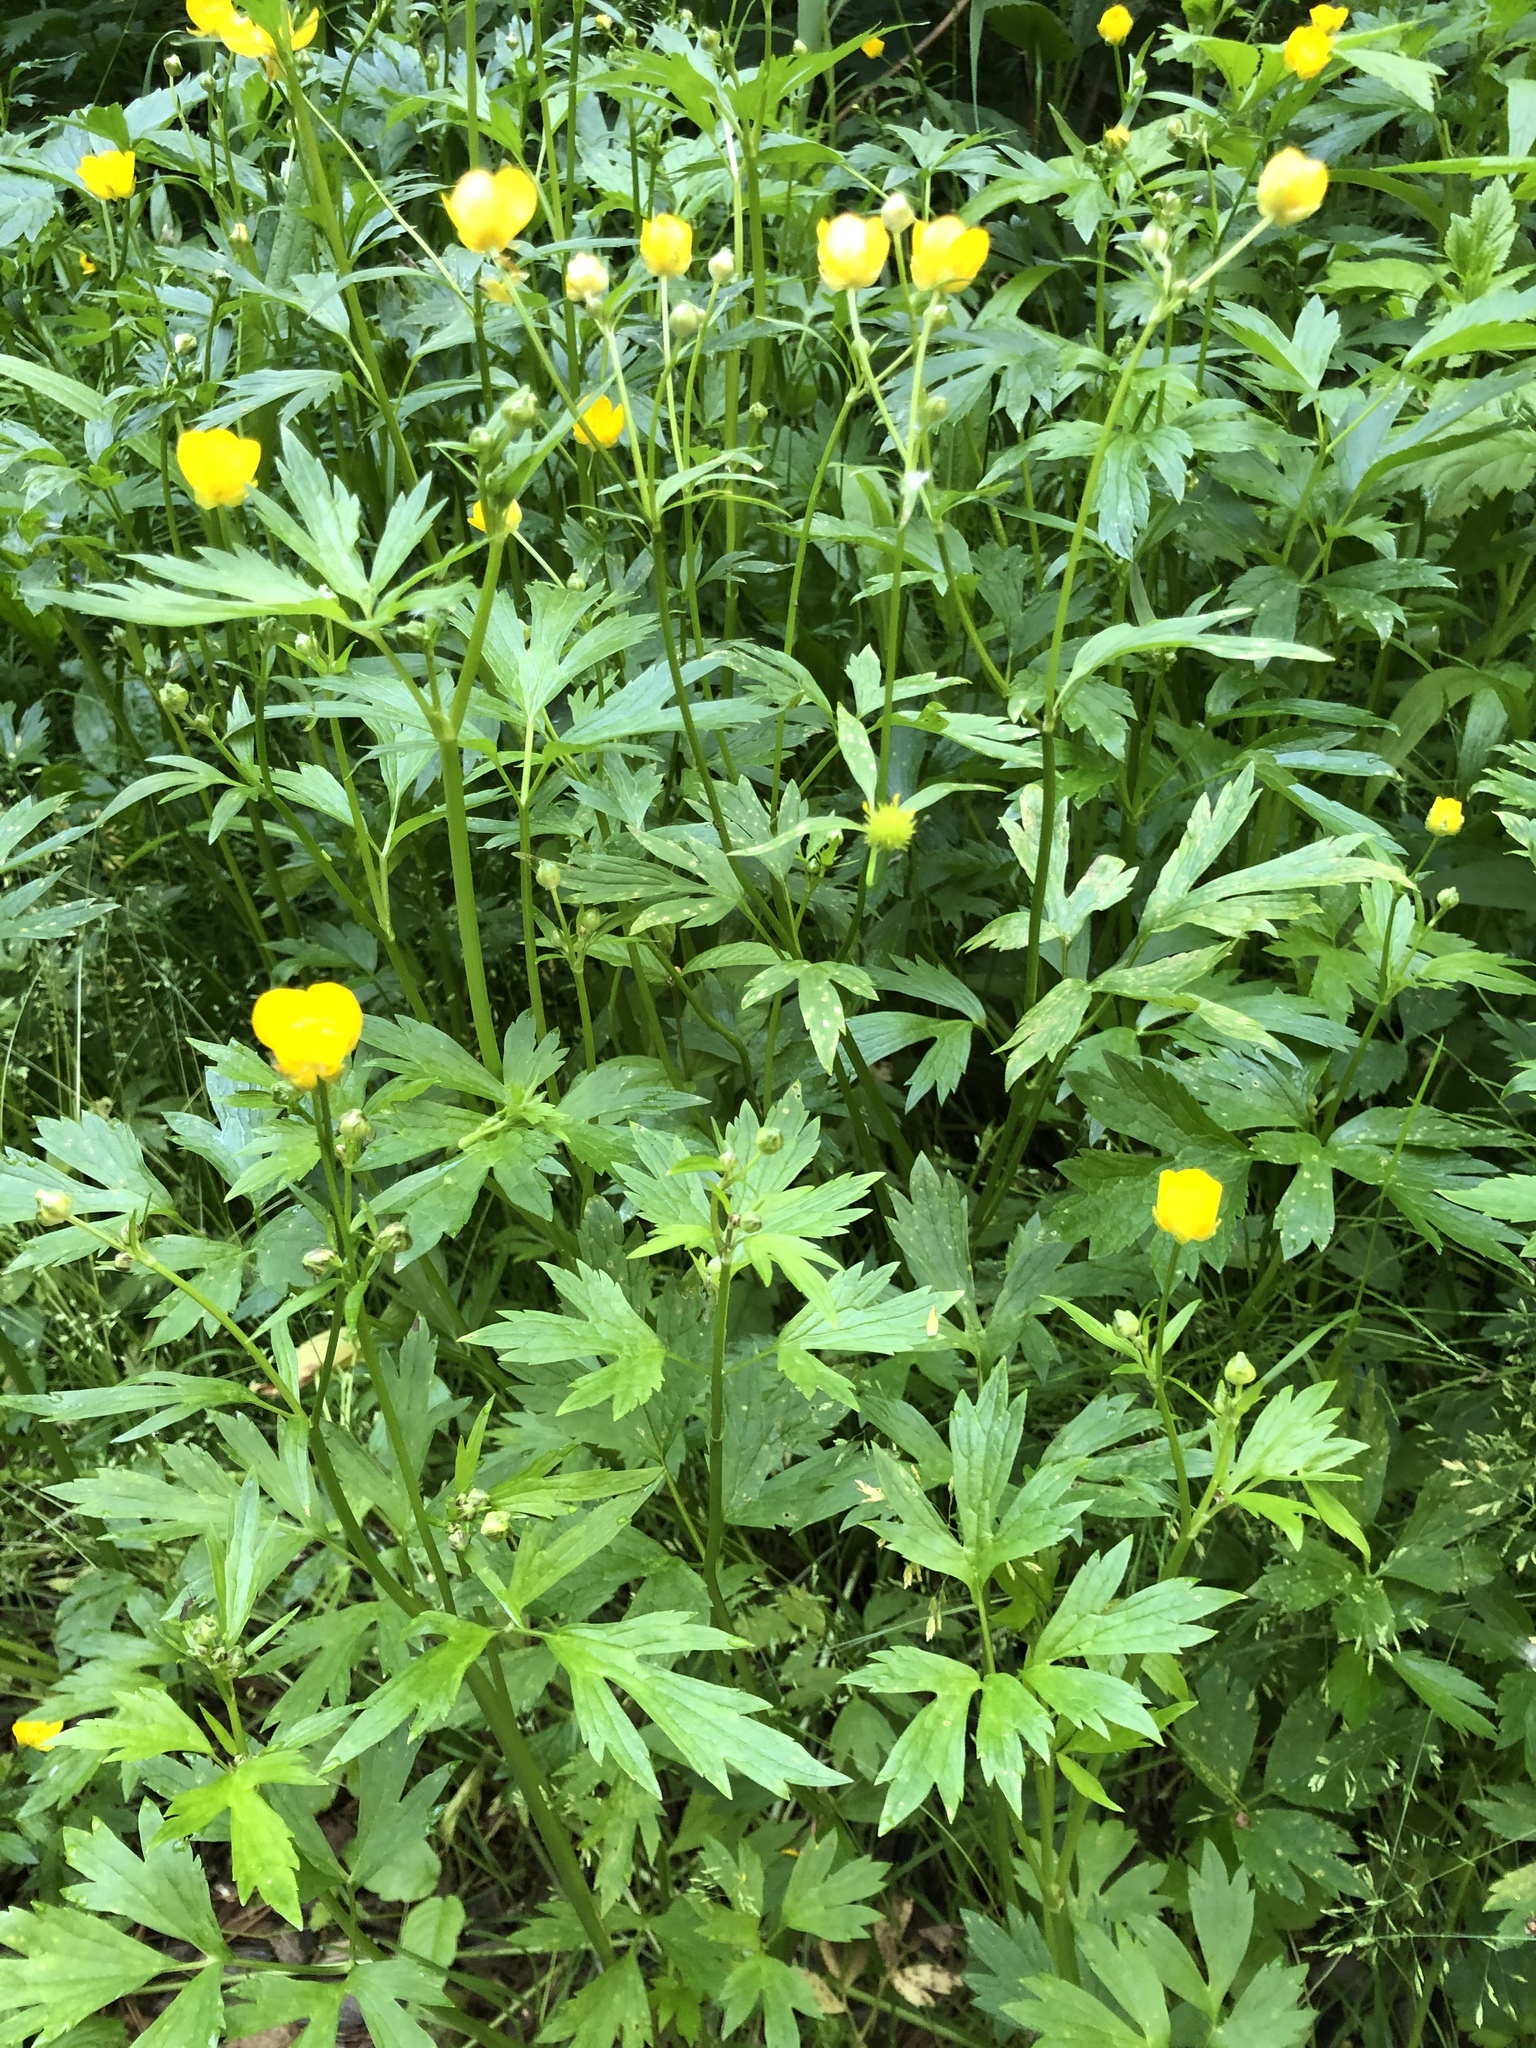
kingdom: Plantae
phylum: Tracheophyta
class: Magnoliopsida
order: Ranunculales
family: Ranunculaceae
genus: Ranunculus
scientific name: Ranunculus repens
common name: Creeping buttercup
